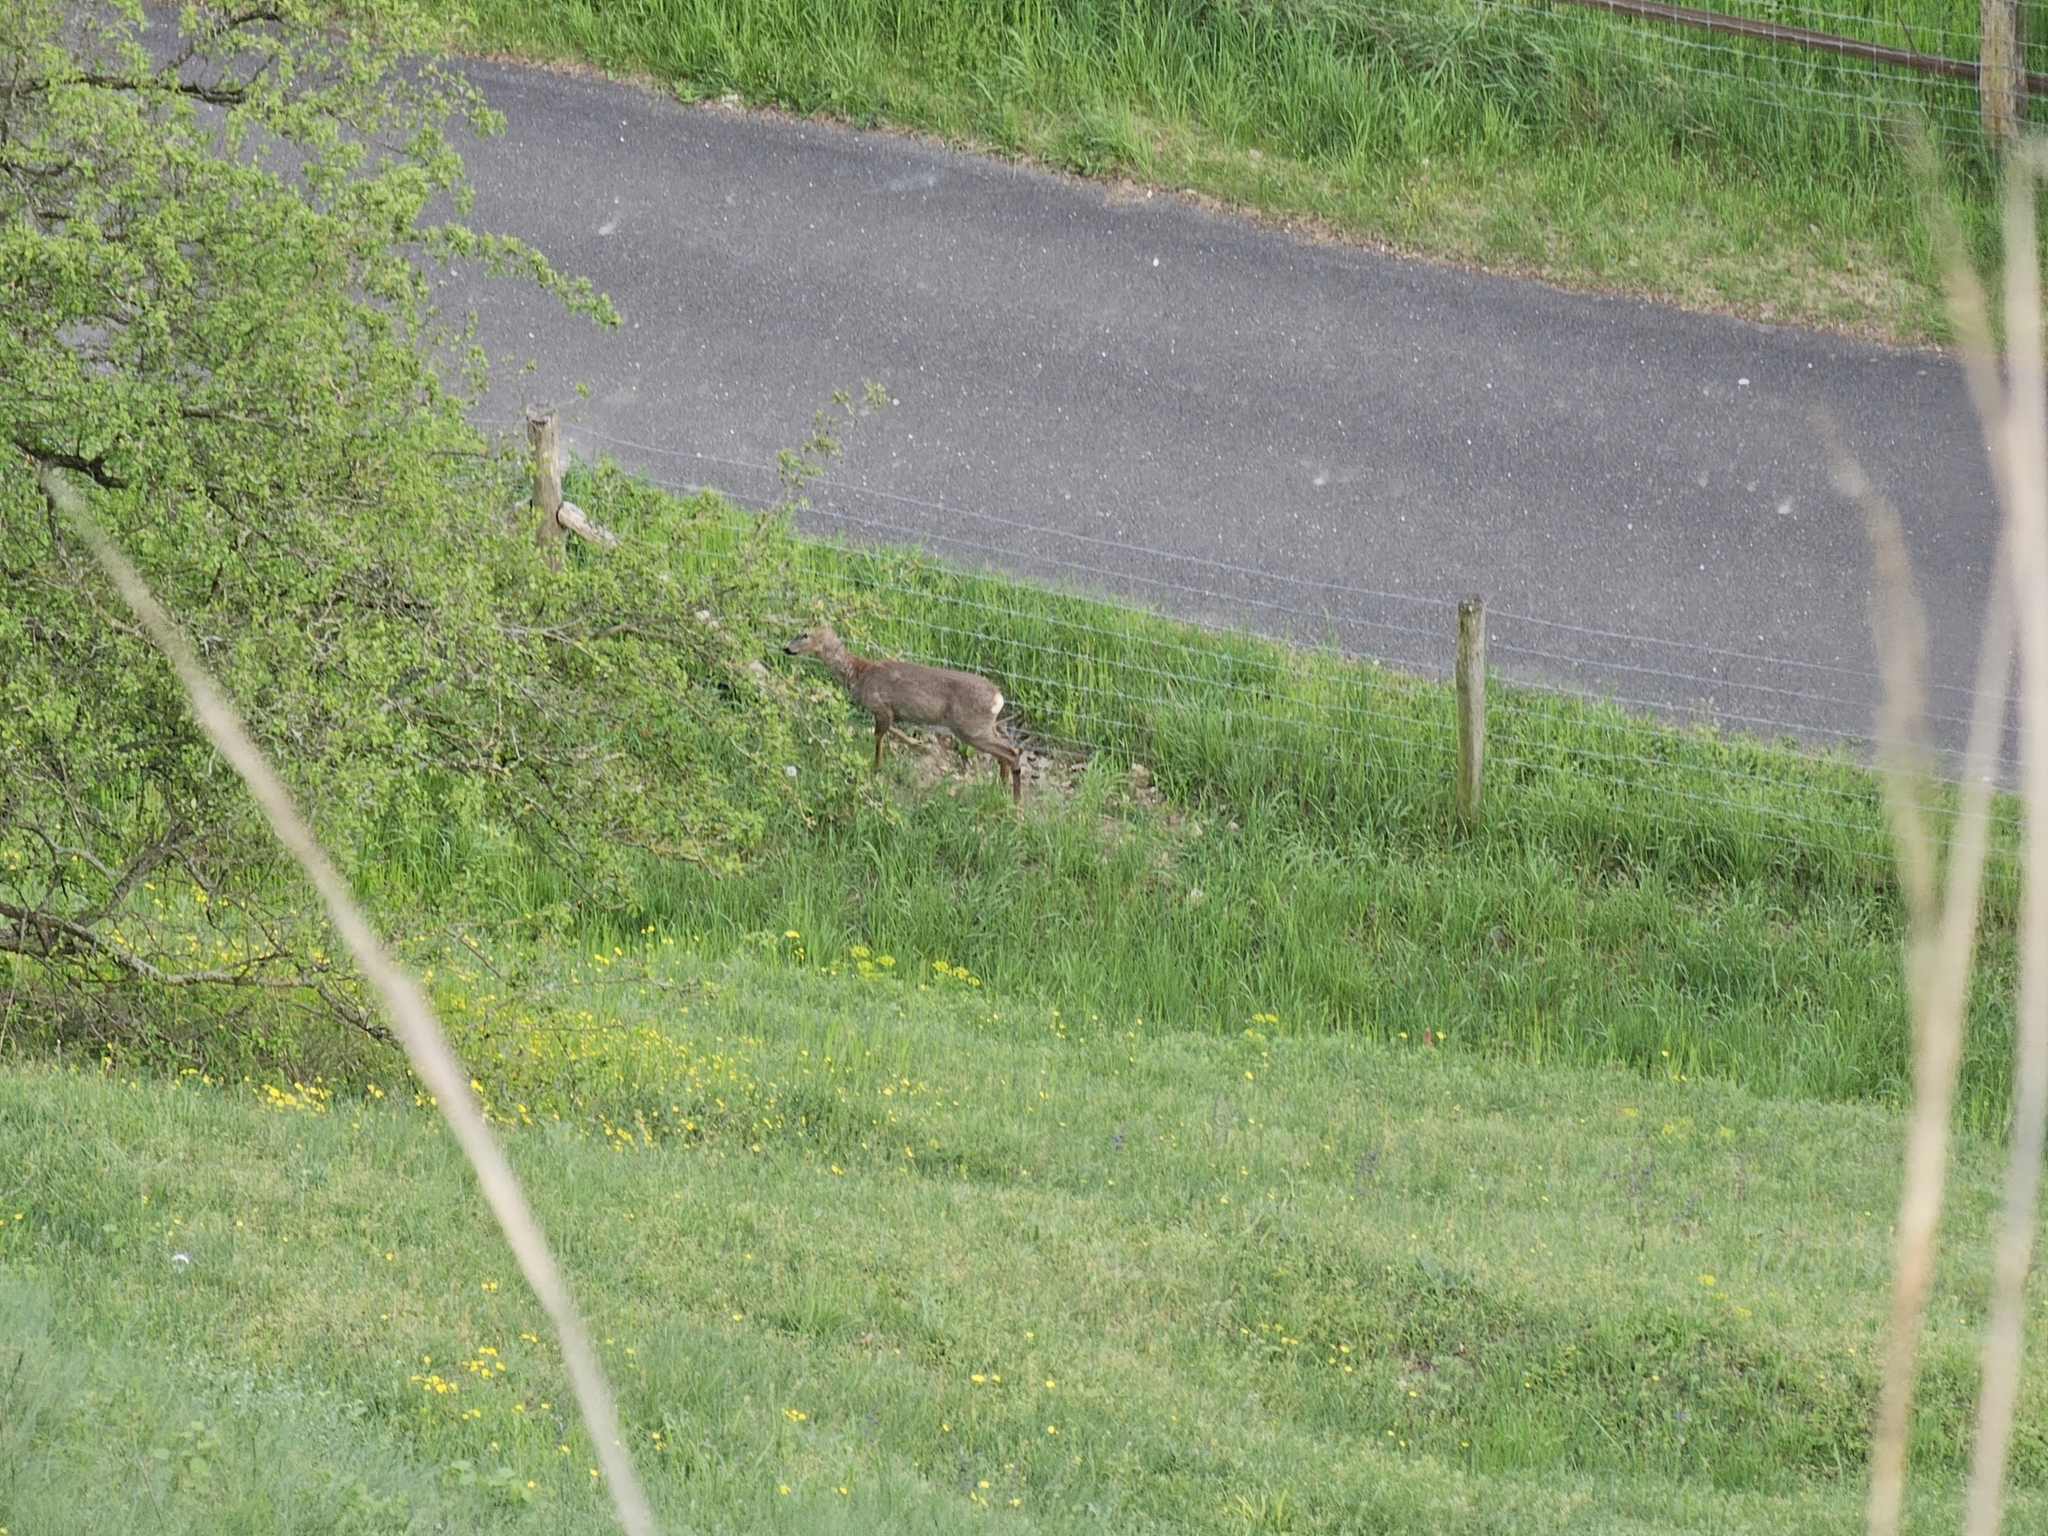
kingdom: Animalia
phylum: Chordata
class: Mammalia
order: Artiodactyla
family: Cervidae
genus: Capreolus
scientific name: Capreolus capreolus
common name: Western roe deer
